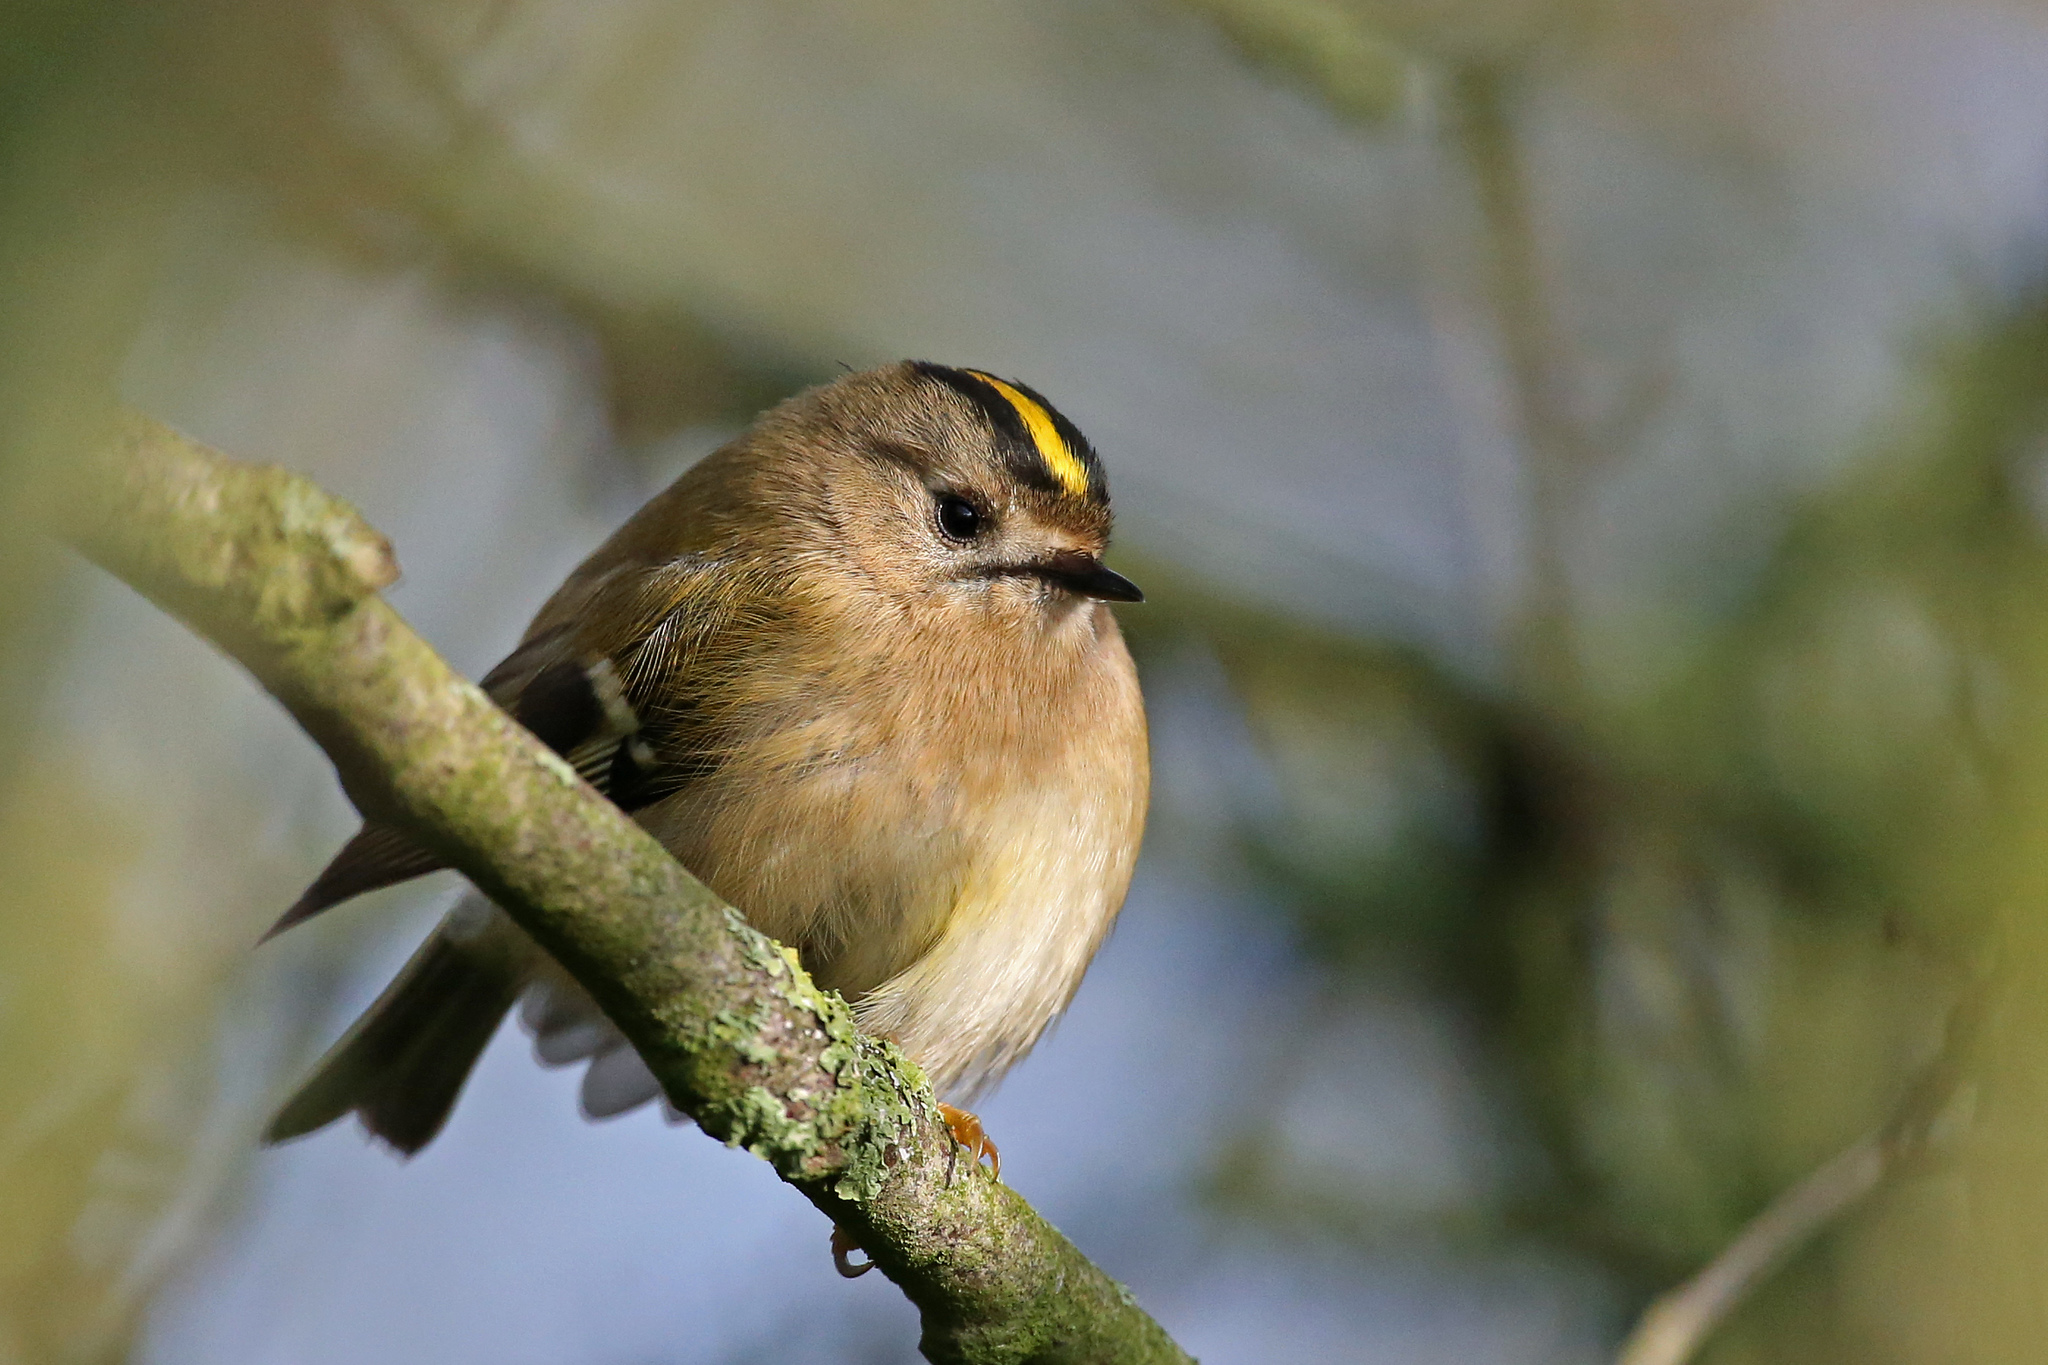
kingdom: Animalia
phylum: Chordata
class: Aves
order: Passeriformes
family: Regulidae
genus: Regulus
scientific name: Regulus regulus
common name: Goldcrest
